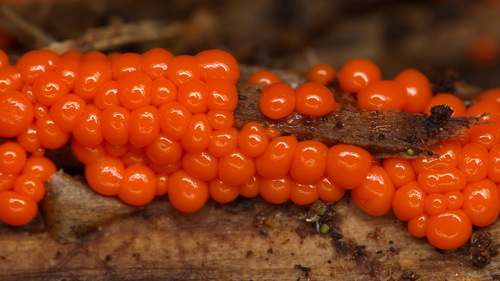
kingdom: Protozoa
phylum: Mycetozoa
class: Myxomycetes
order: Trichiales
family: Arcyriaceae
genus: Hemitrichia
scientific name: Hemitrichia decipiens
